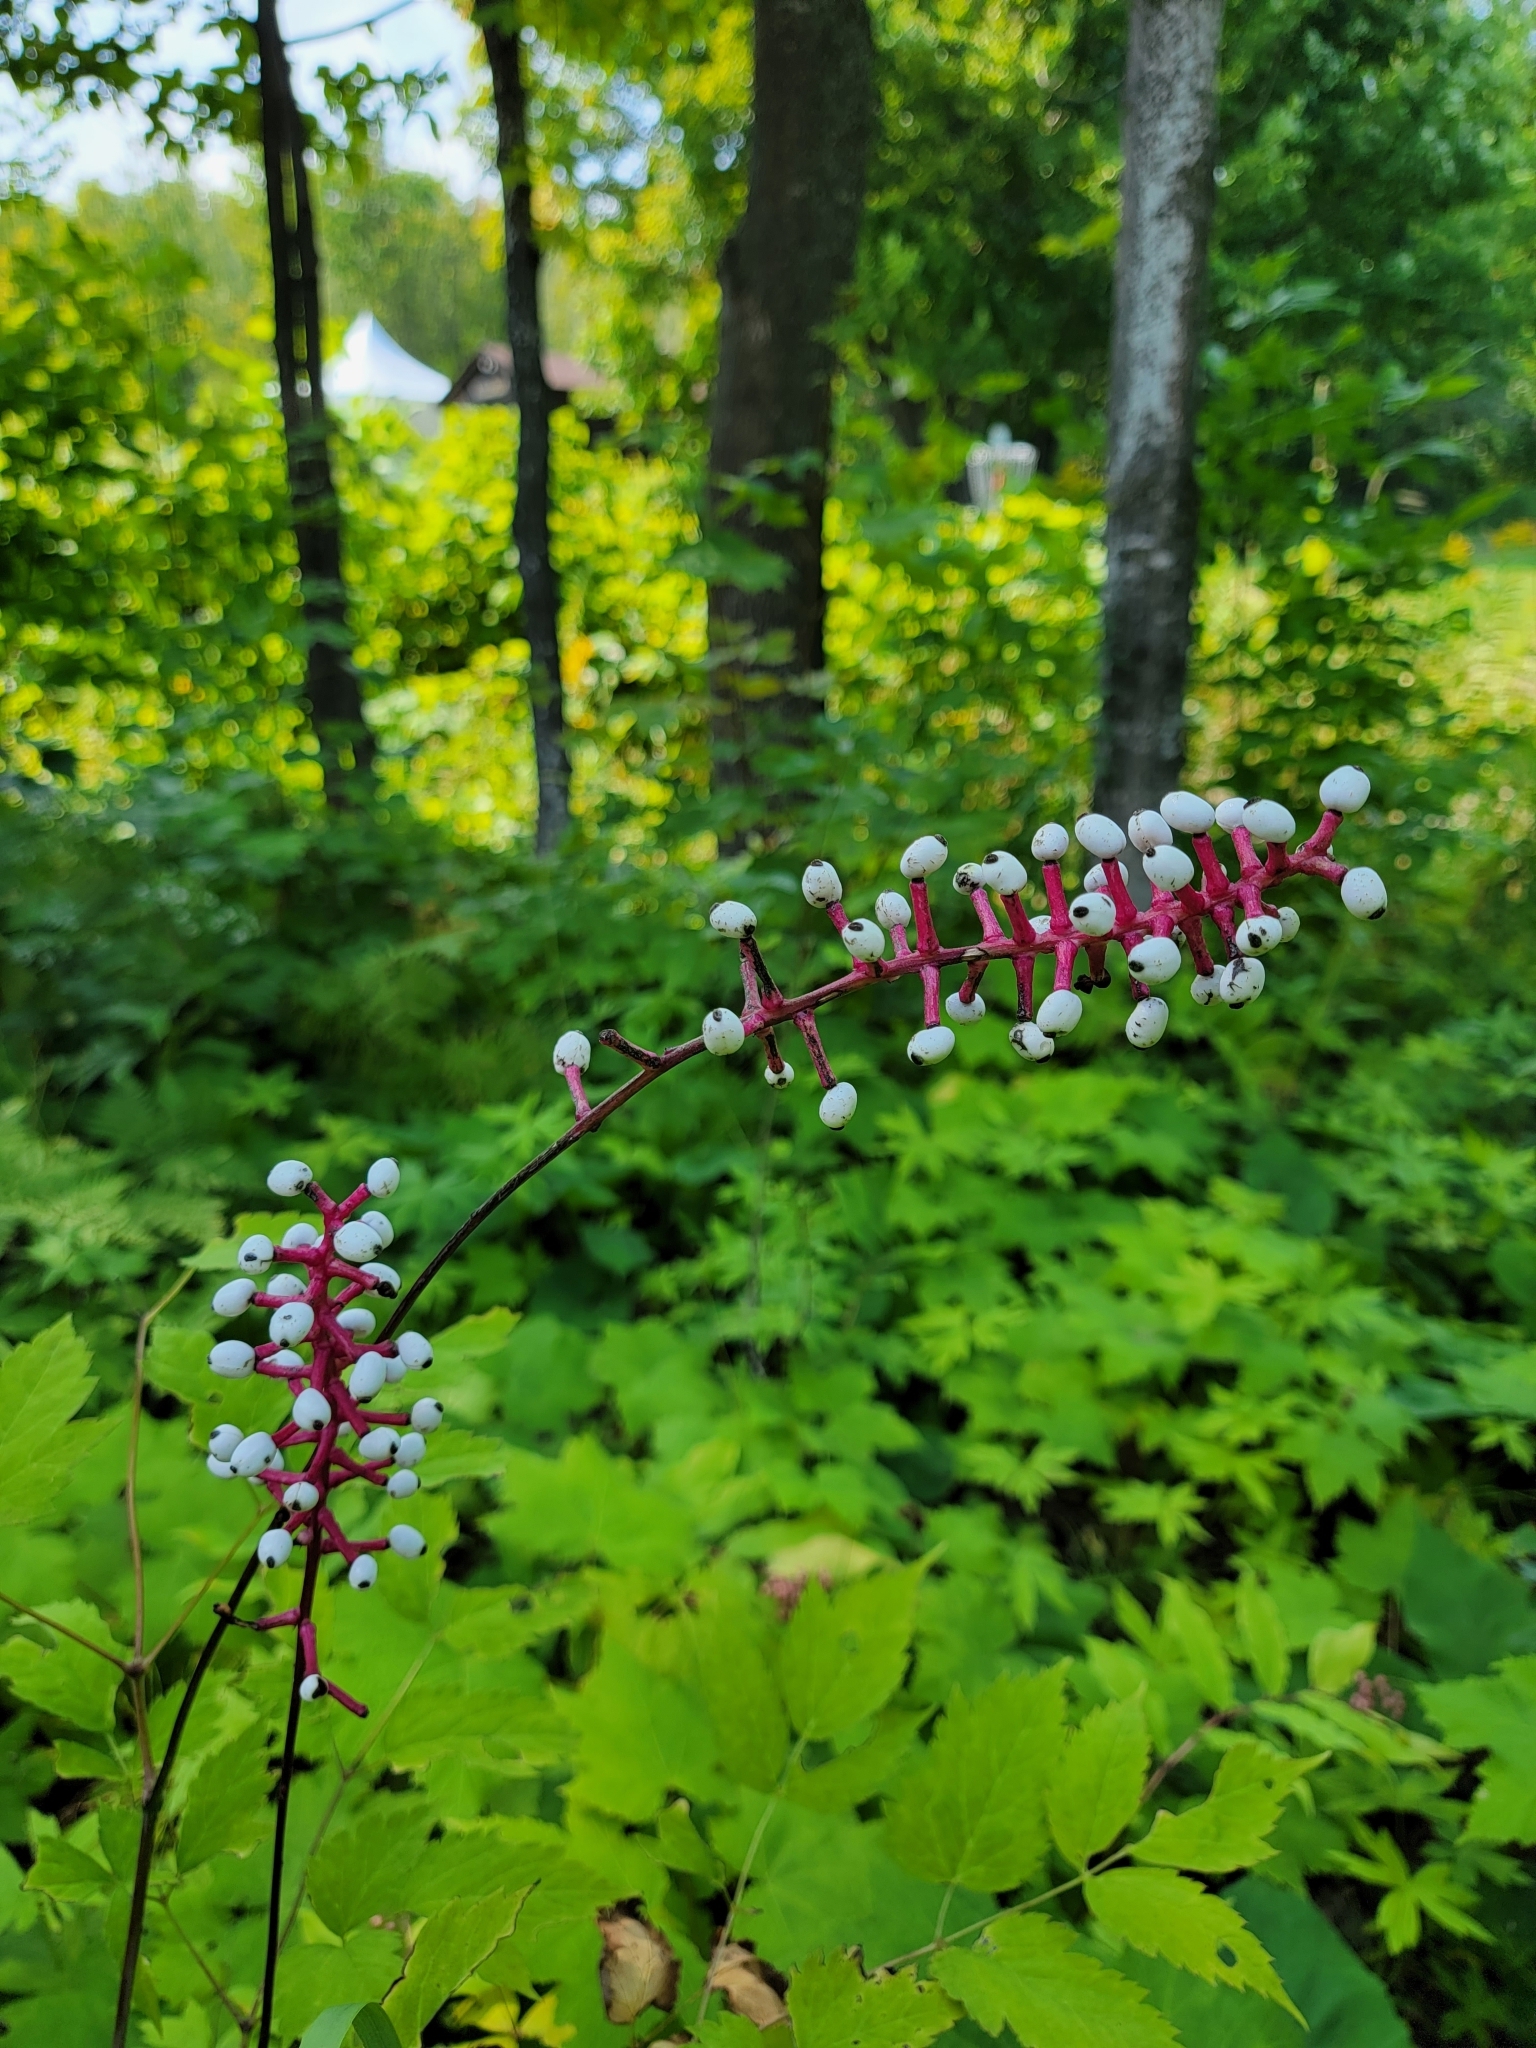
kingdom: Plantae
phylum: Tracheophyta
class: Magnoliopsida
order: Ranunculales
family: Ranunculaceae
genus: Actaea
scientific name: Actaea pachypoda
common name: Doll's-eyes
